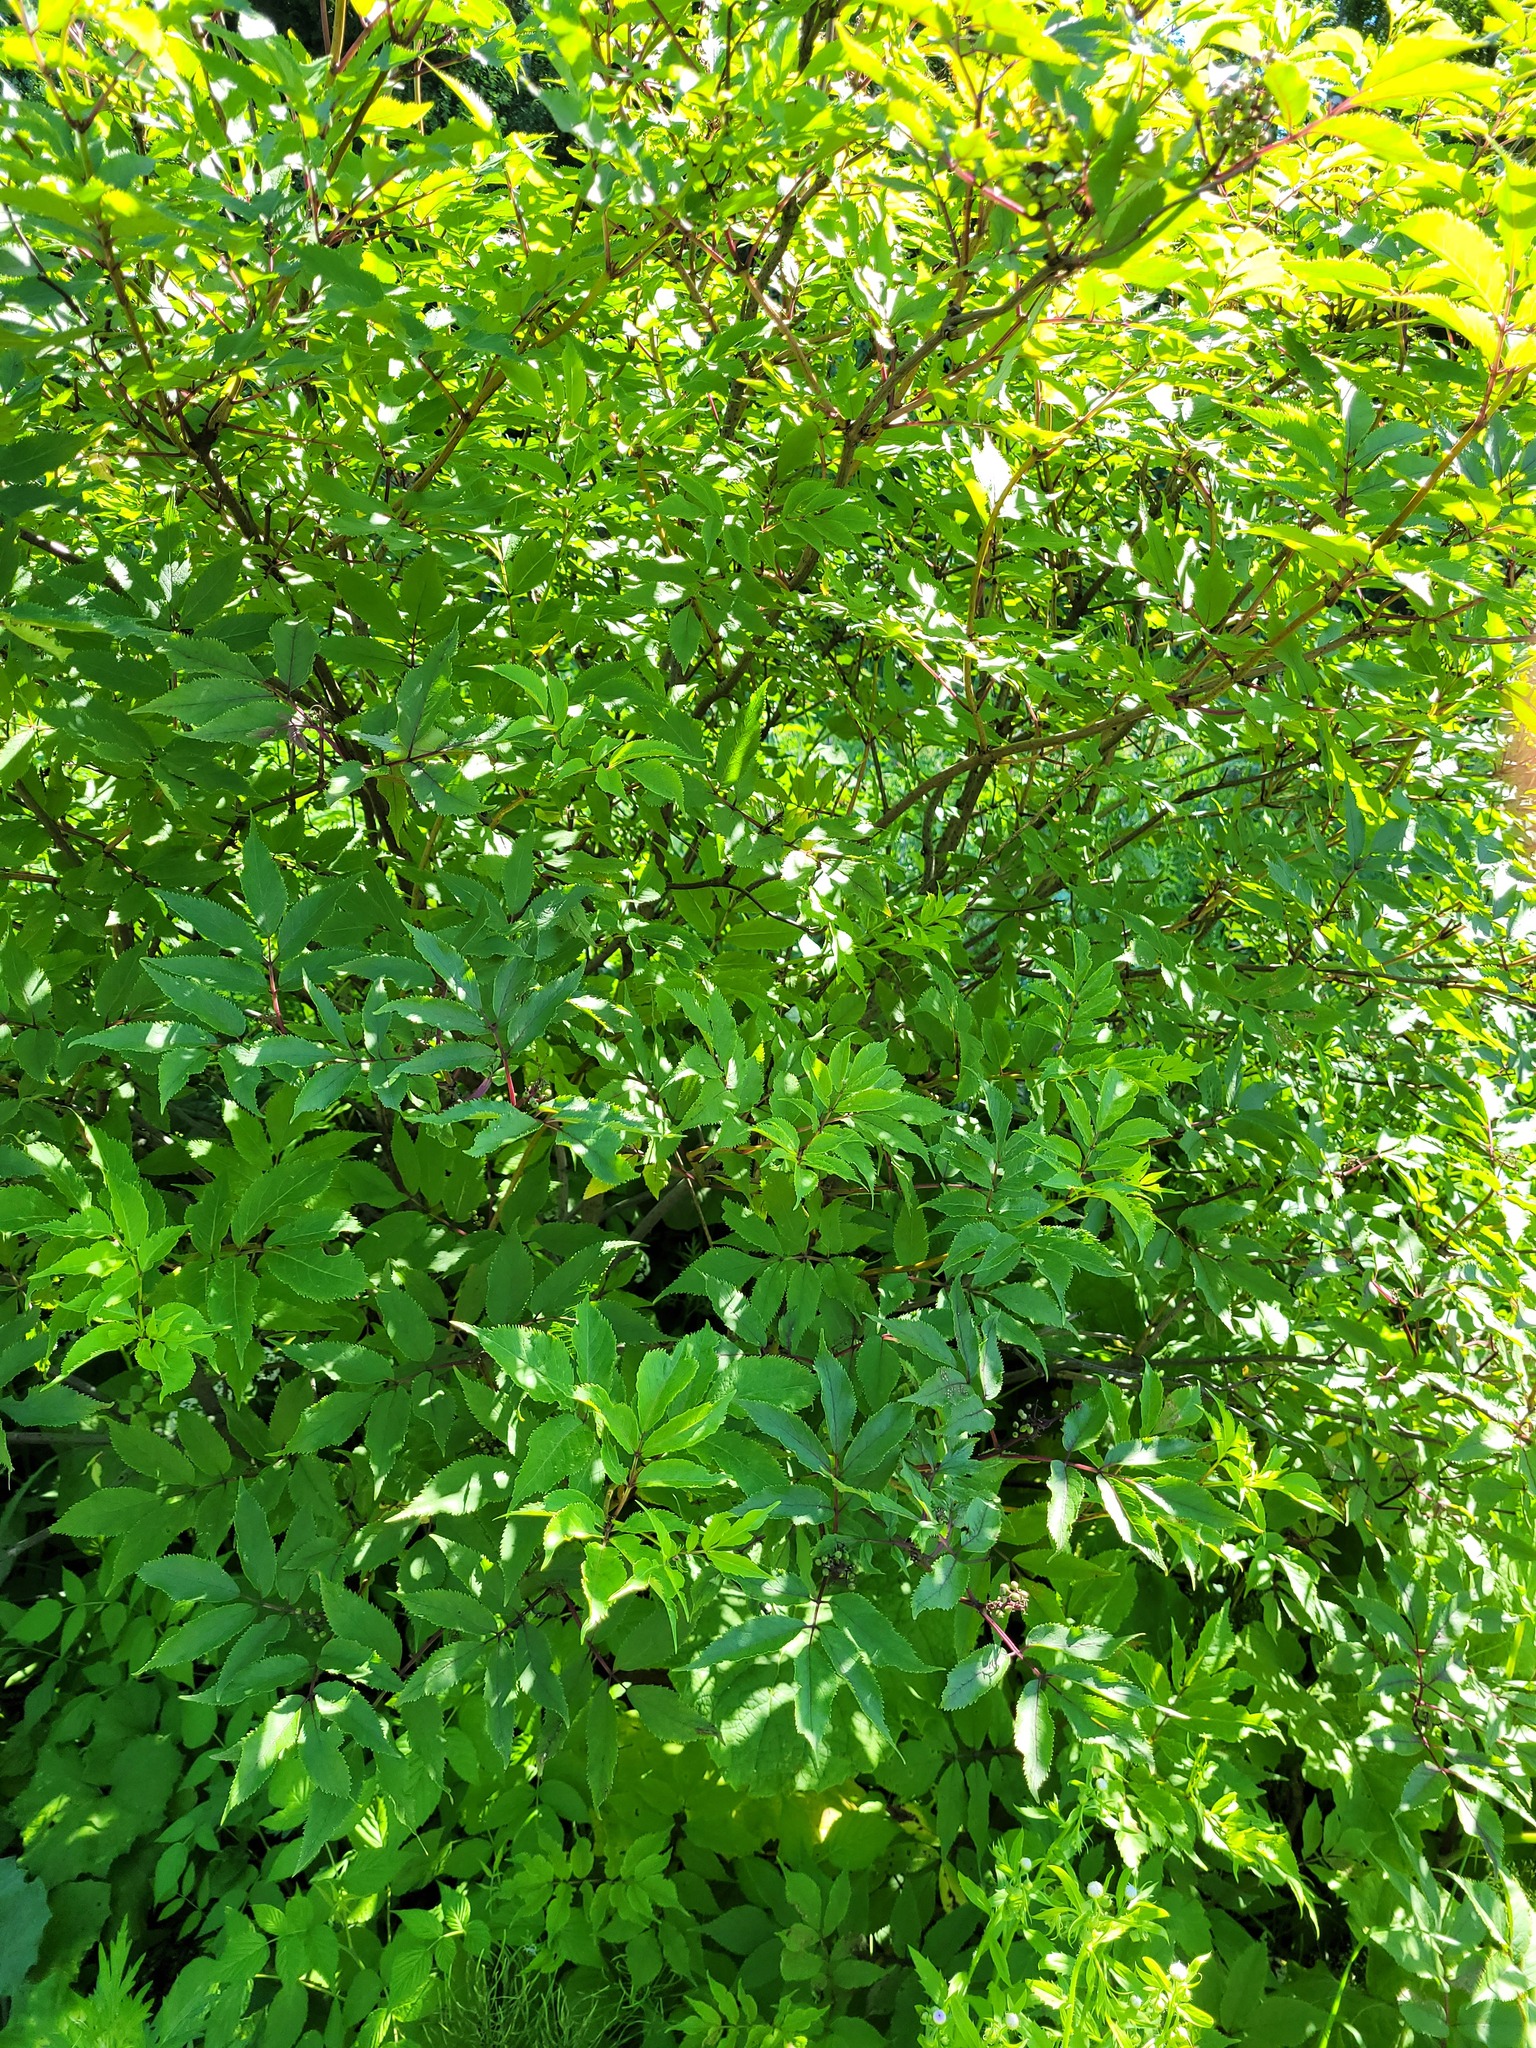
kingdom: Plantae
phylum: Tracheophyta
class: Magnoliopsida
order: Dipsacales
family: Viburnaceae
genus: Sambucus
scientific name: Sambucus racemosa
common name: Red-berried elder
